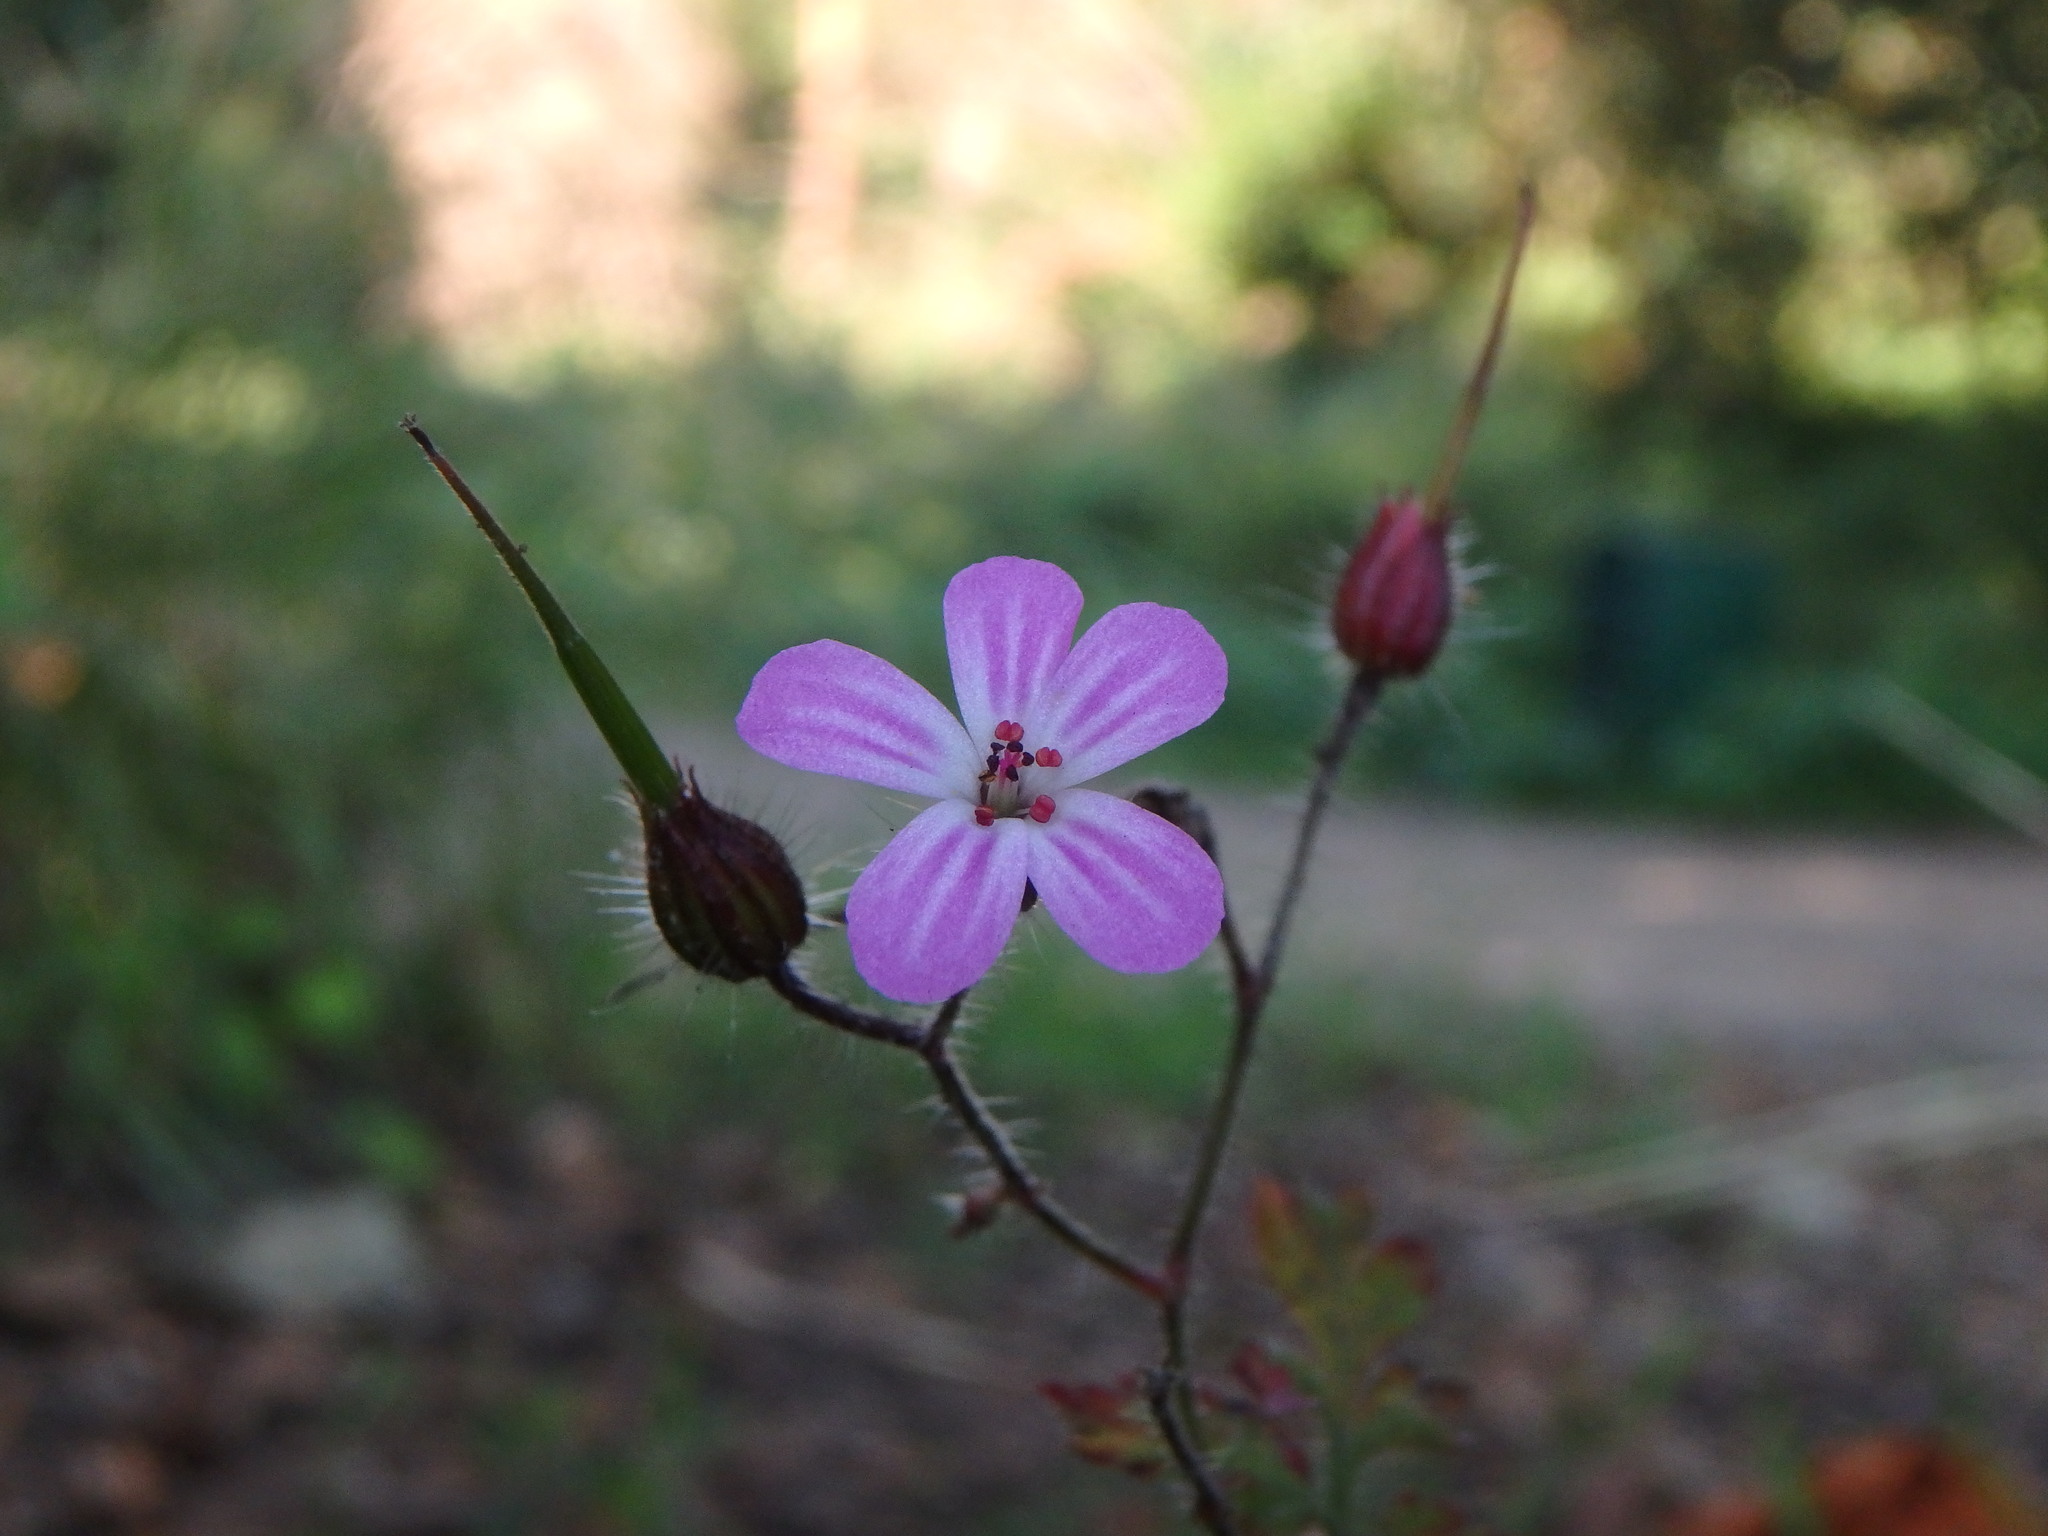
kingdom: Plantae
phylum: Tracheophyta
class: Magnoliopsida
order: Geraniales
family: Geraniaceae
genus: Geranium
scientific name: Geranium robertianum
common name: Herb-robert
